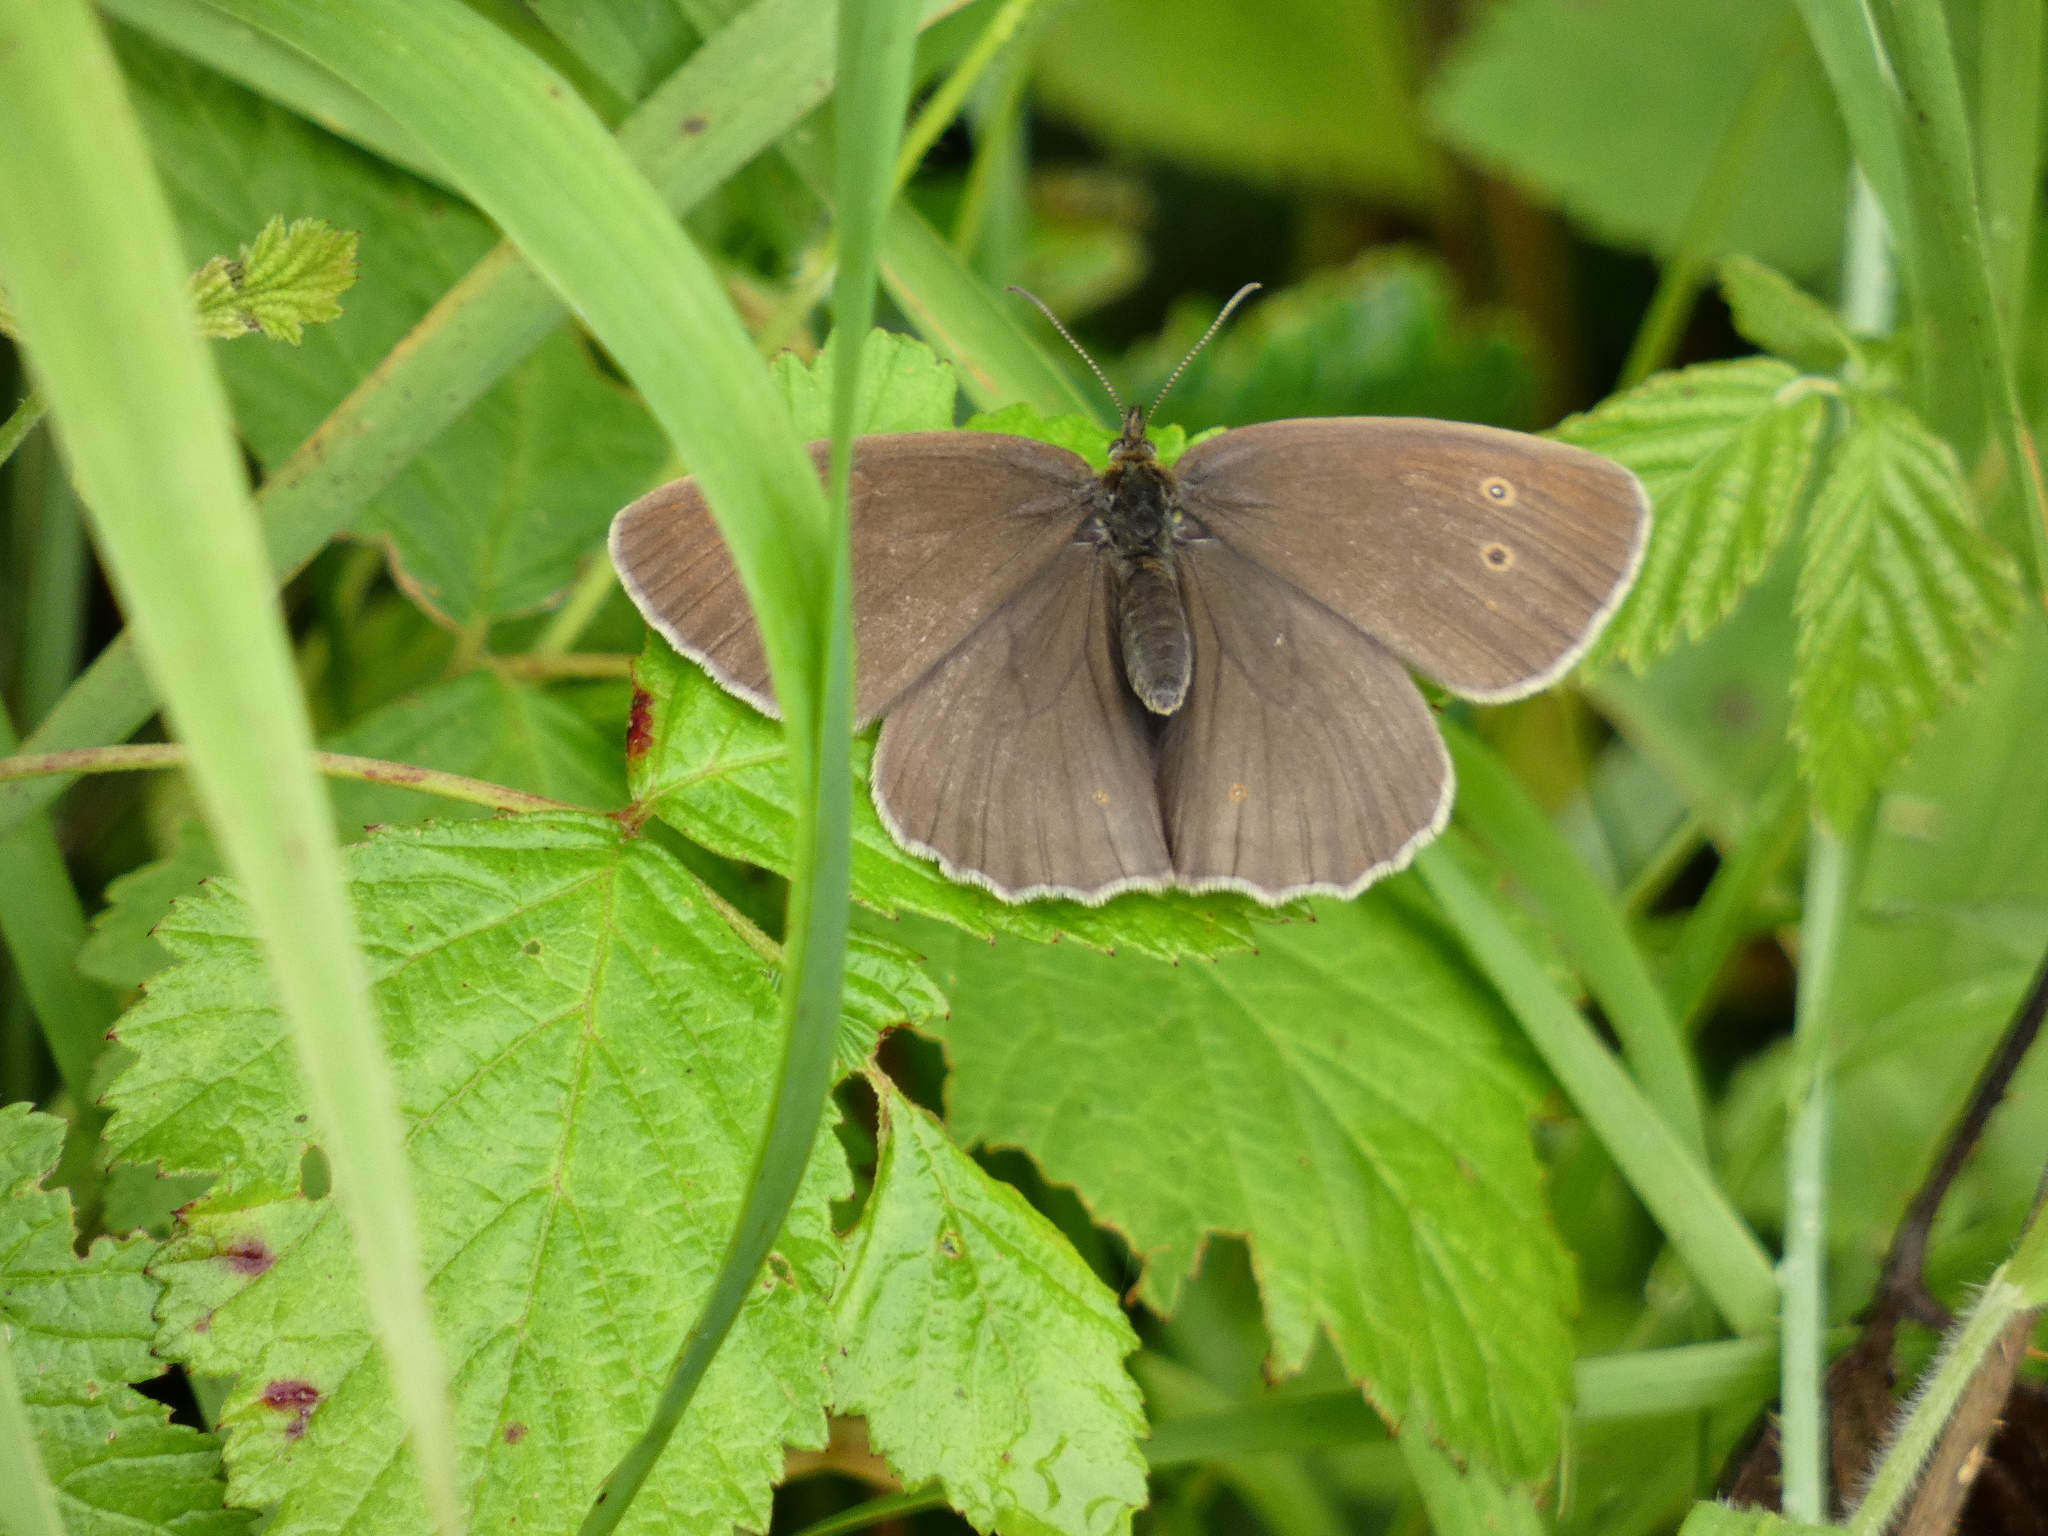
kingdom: Animalia
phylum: Arthropoda
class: Insecta
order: Lepidoptera
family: Nymphalidae
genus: Aphantopus
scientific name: Aphantopus hyperantus
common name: Ringlet
